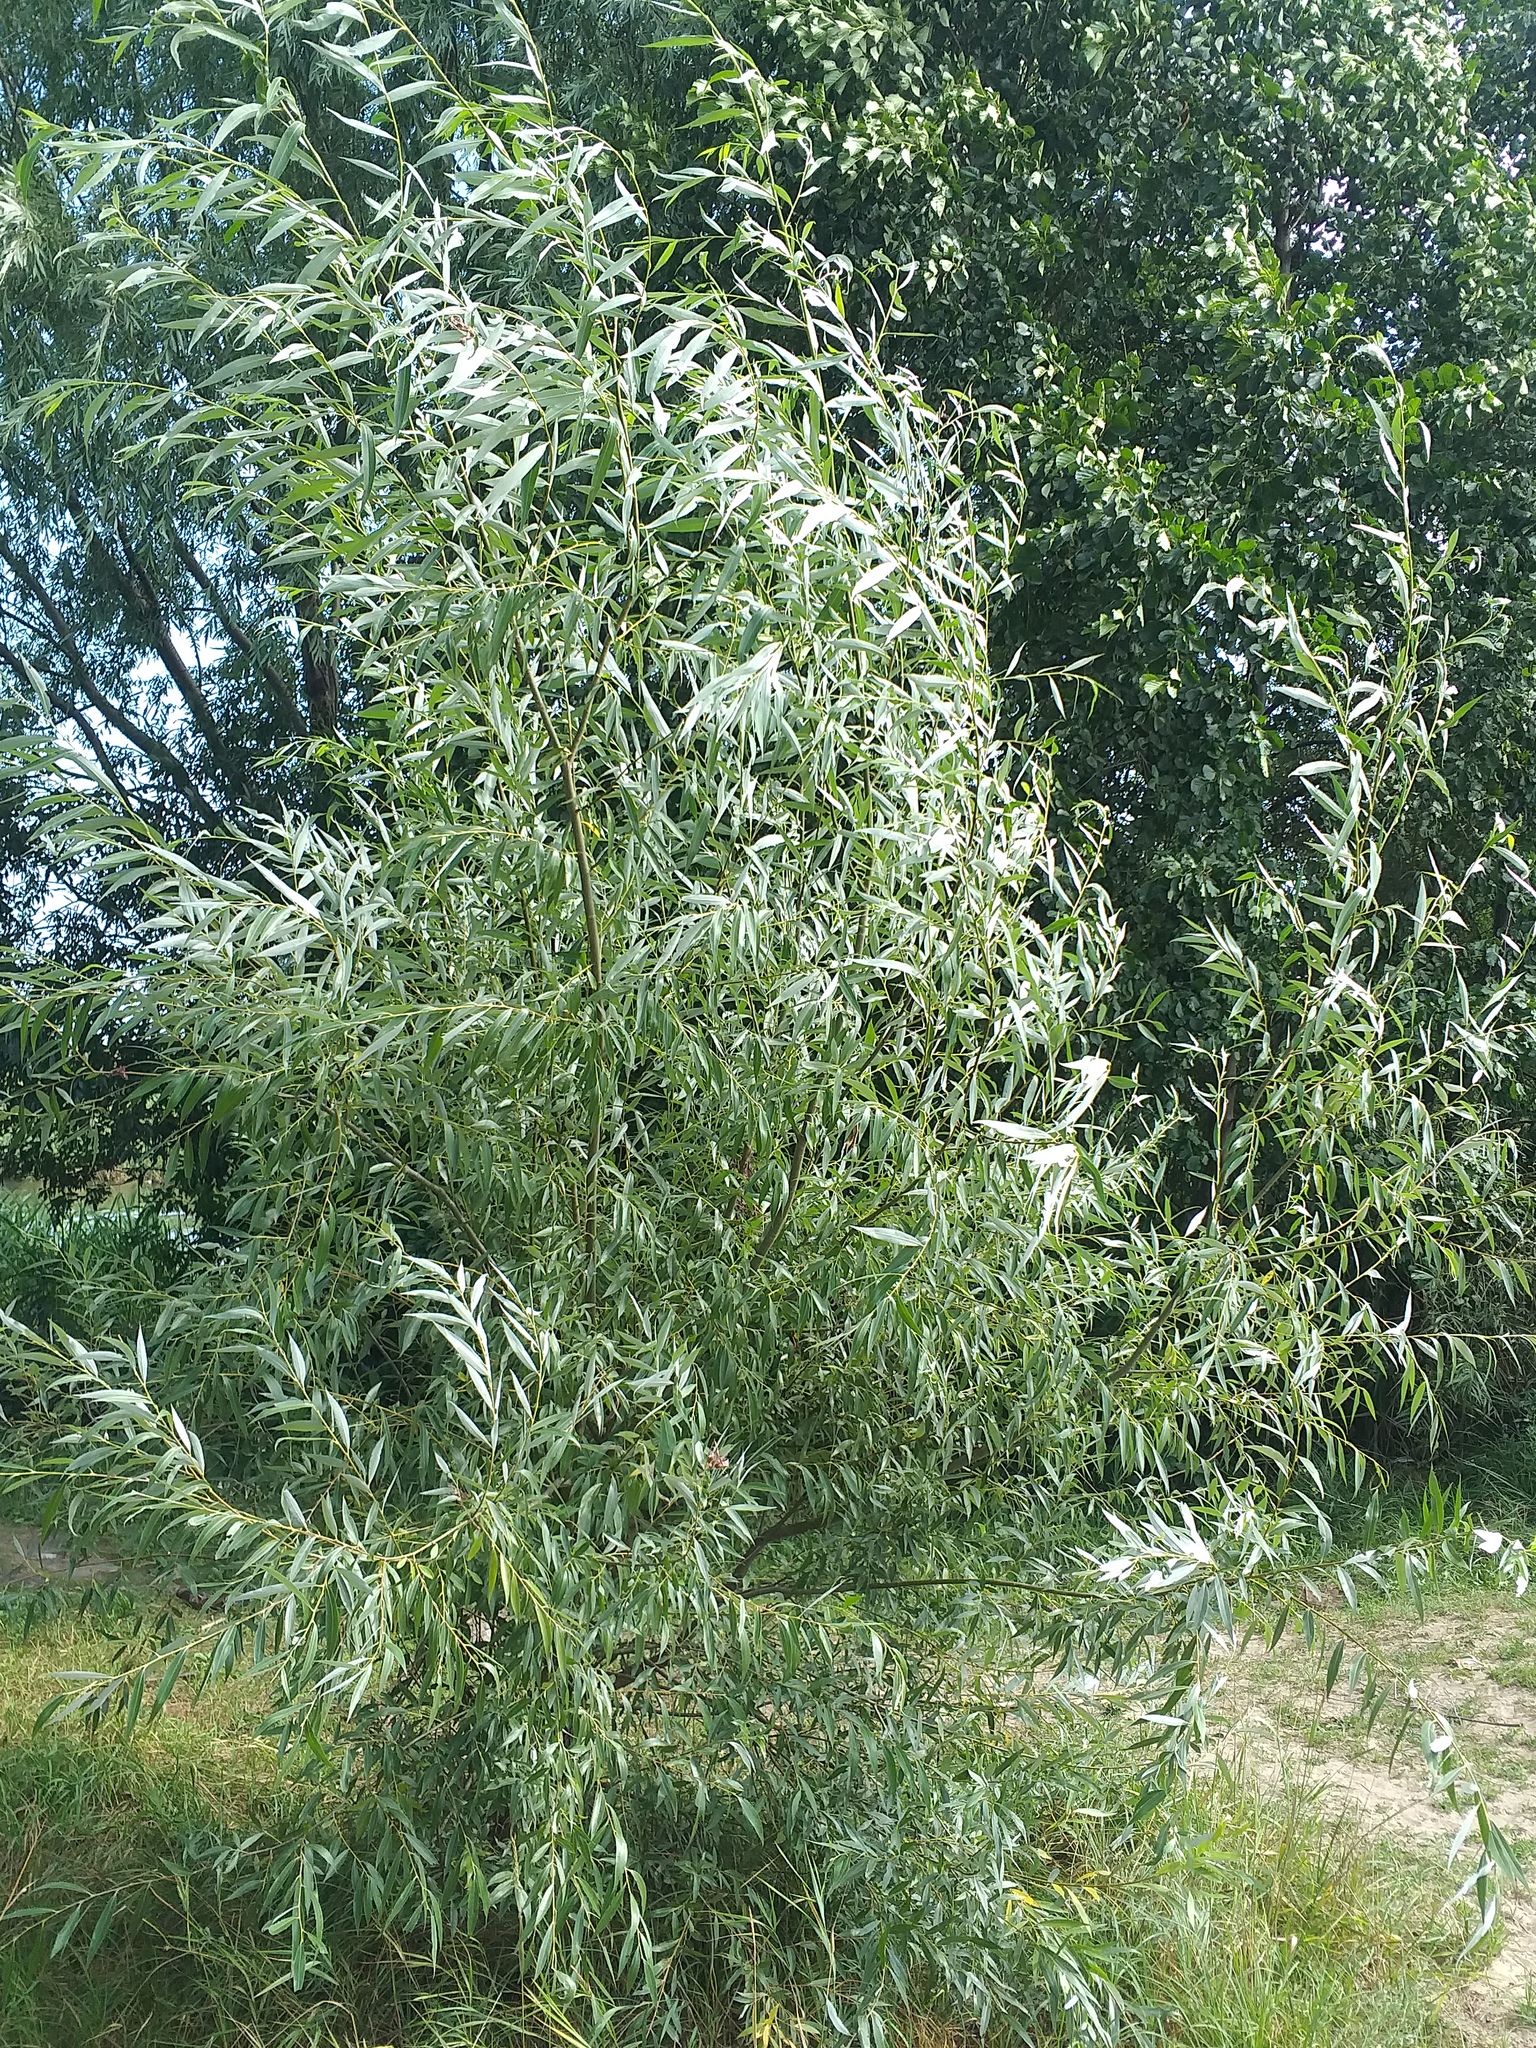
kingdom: Plantae
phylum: Tracheophyta
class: Magnoliopsida
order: Malpighiales
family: Salicaceae
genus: Salix
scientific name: Salix alba
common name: White willow
